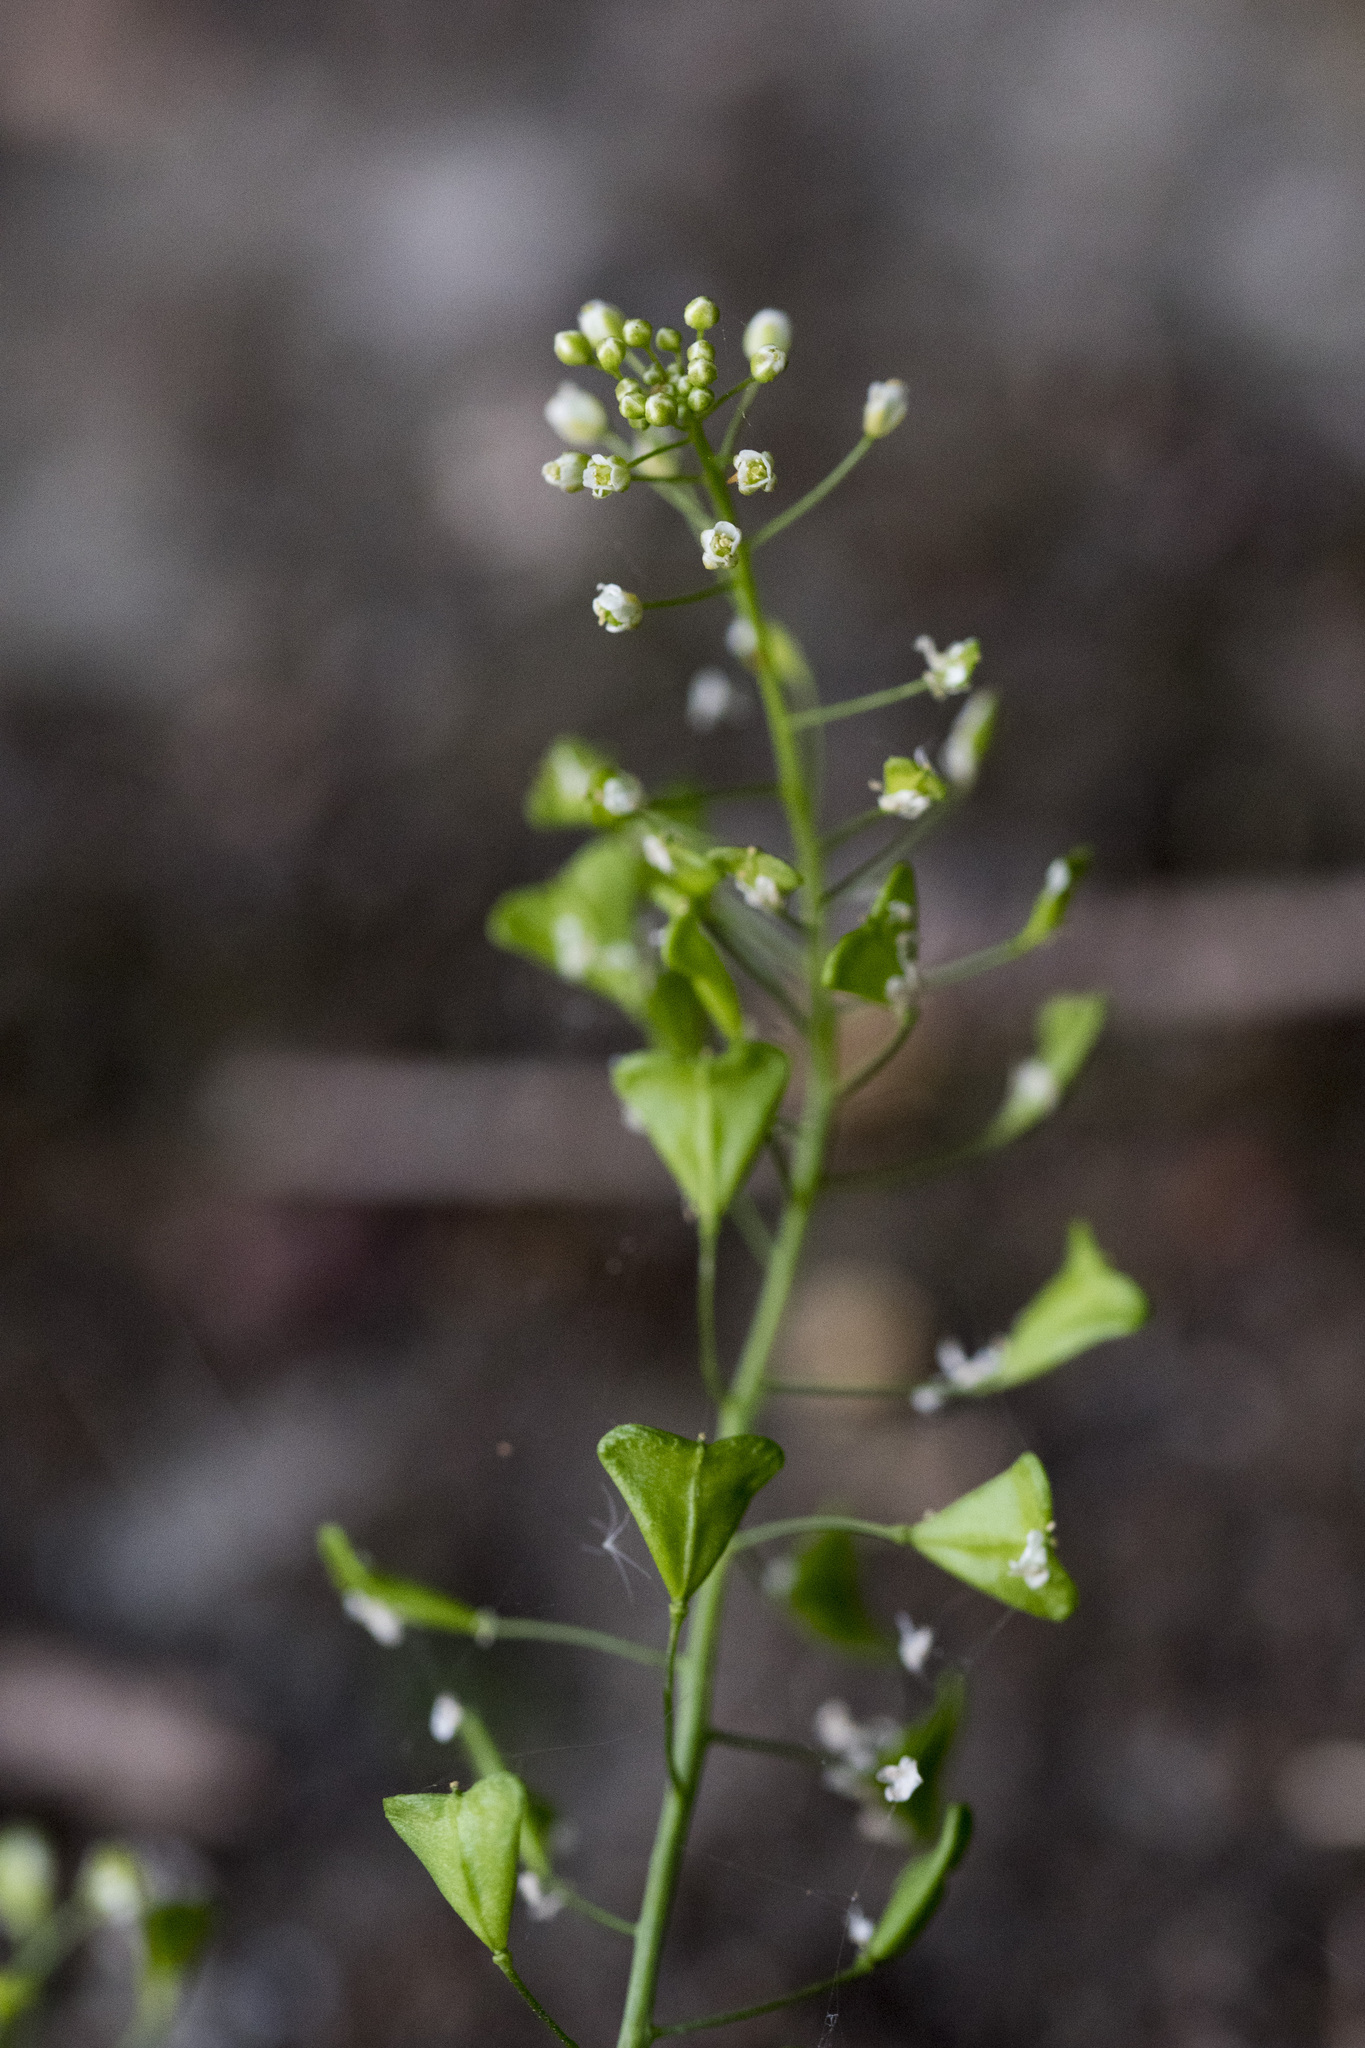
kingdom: Plantae
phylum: Tracheophyta
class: Magnoliopsida
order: Brassicales
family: Brassicaceae
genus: Capsella
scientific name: Capsella bursa-pastoris
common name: Shepherd's purse
